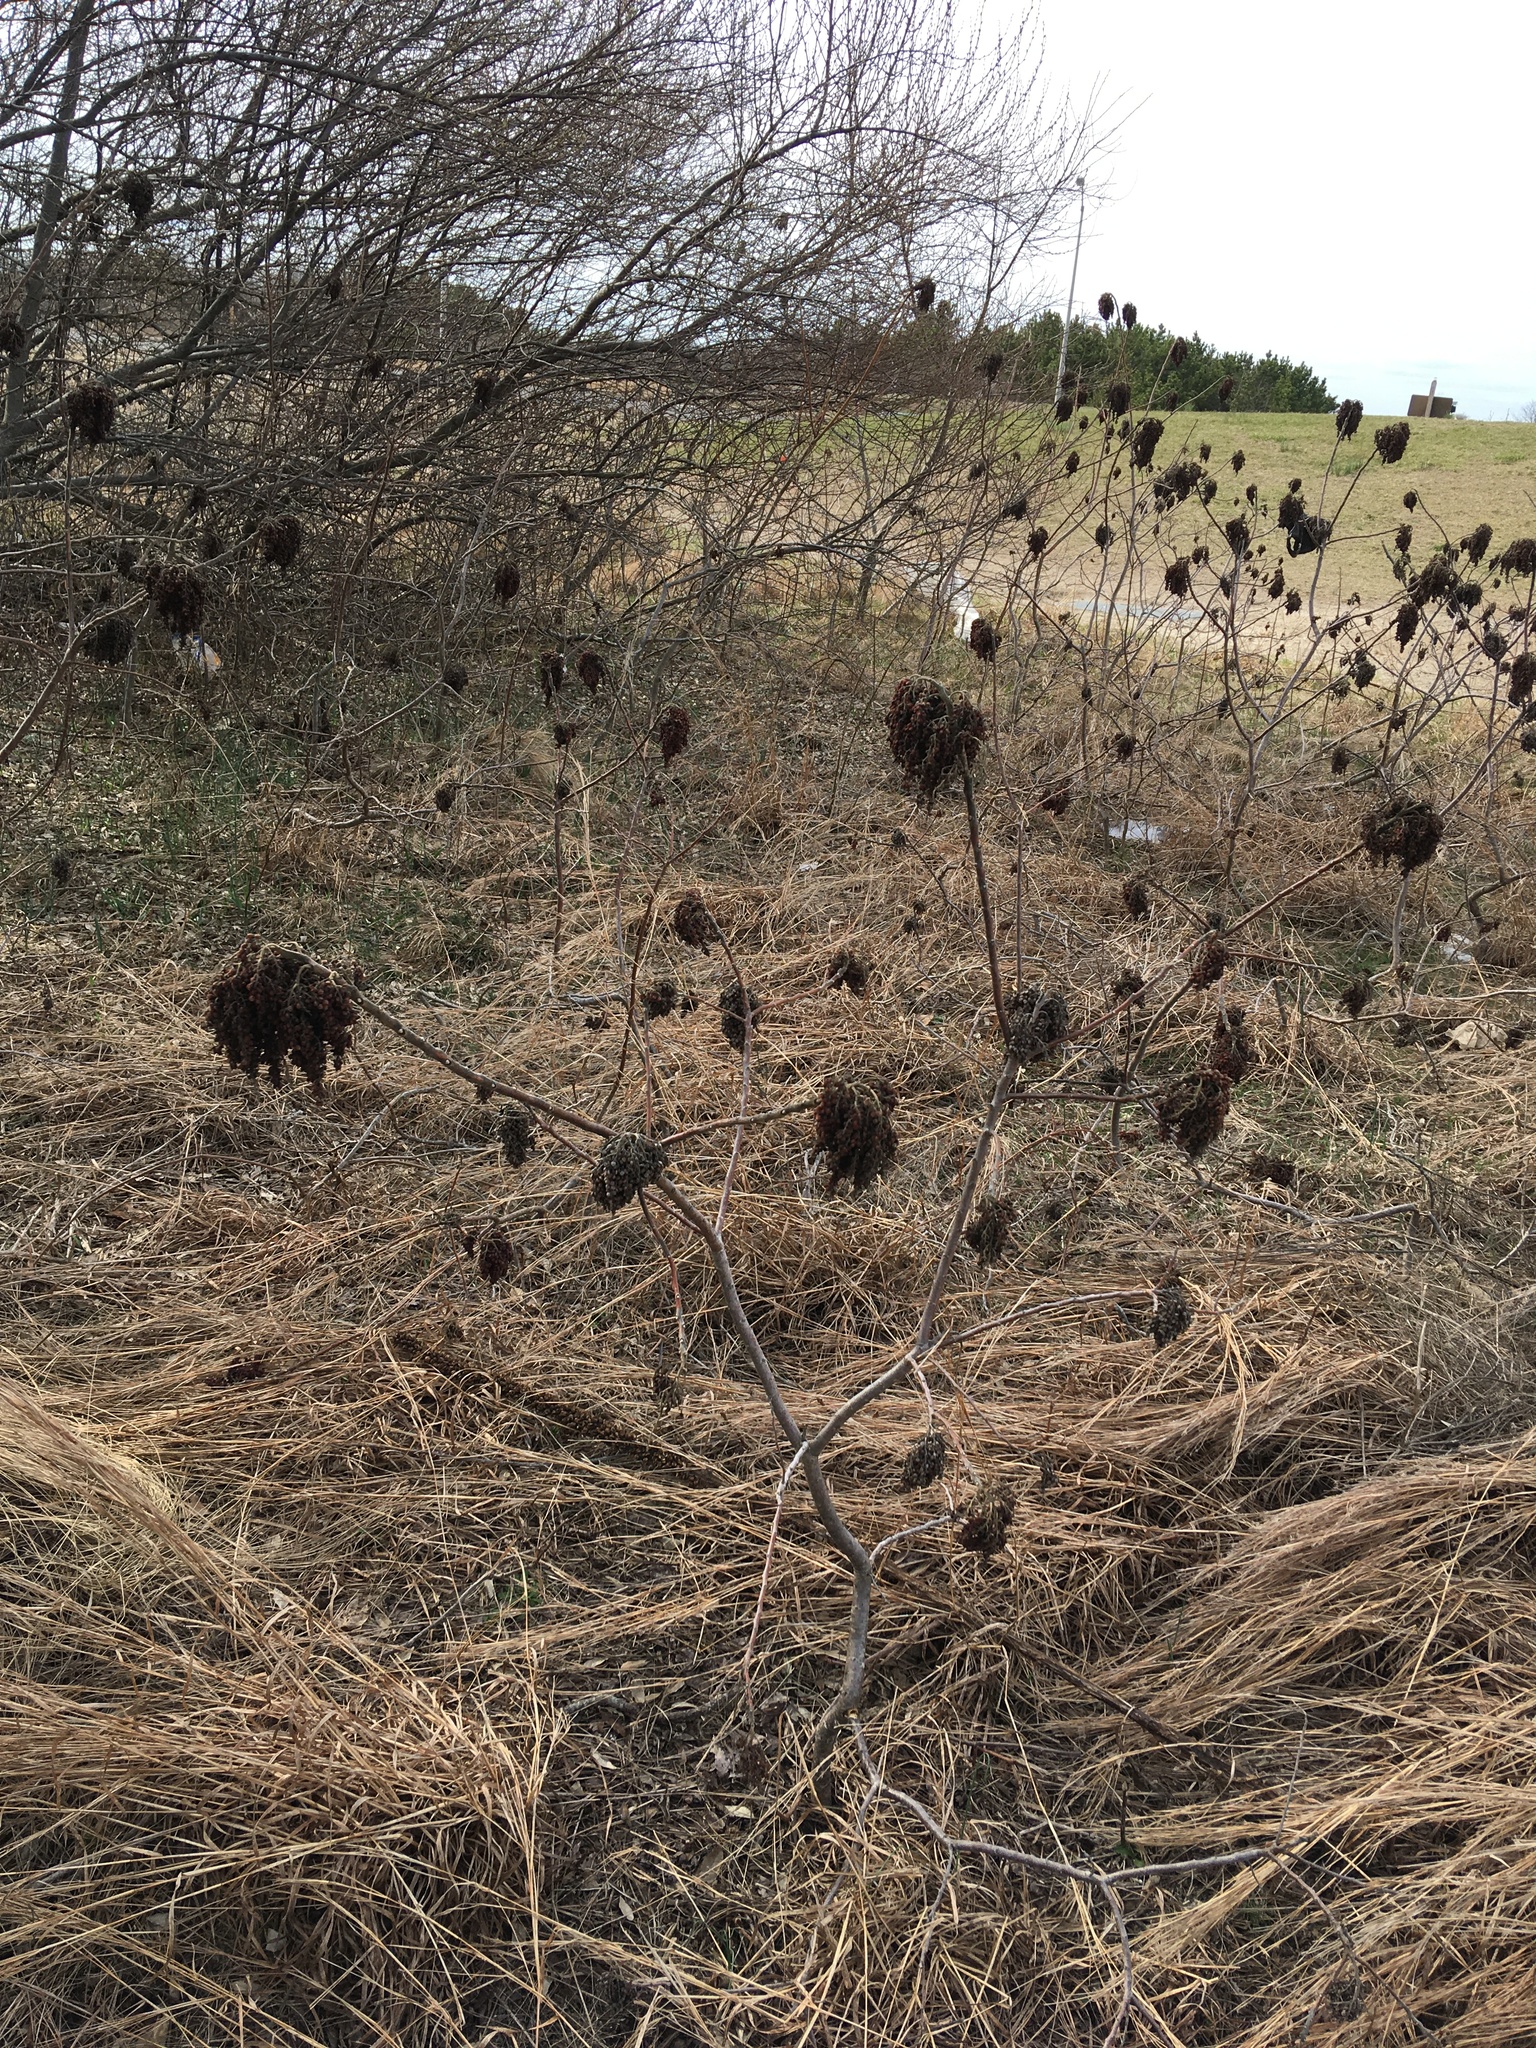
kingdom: Plantae
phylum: Tracheophyta
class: Magnoliopsida
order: Sapindales
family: Anacardiaceae
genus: Rhus
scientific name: Rhus copallina
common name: Shining sumac
